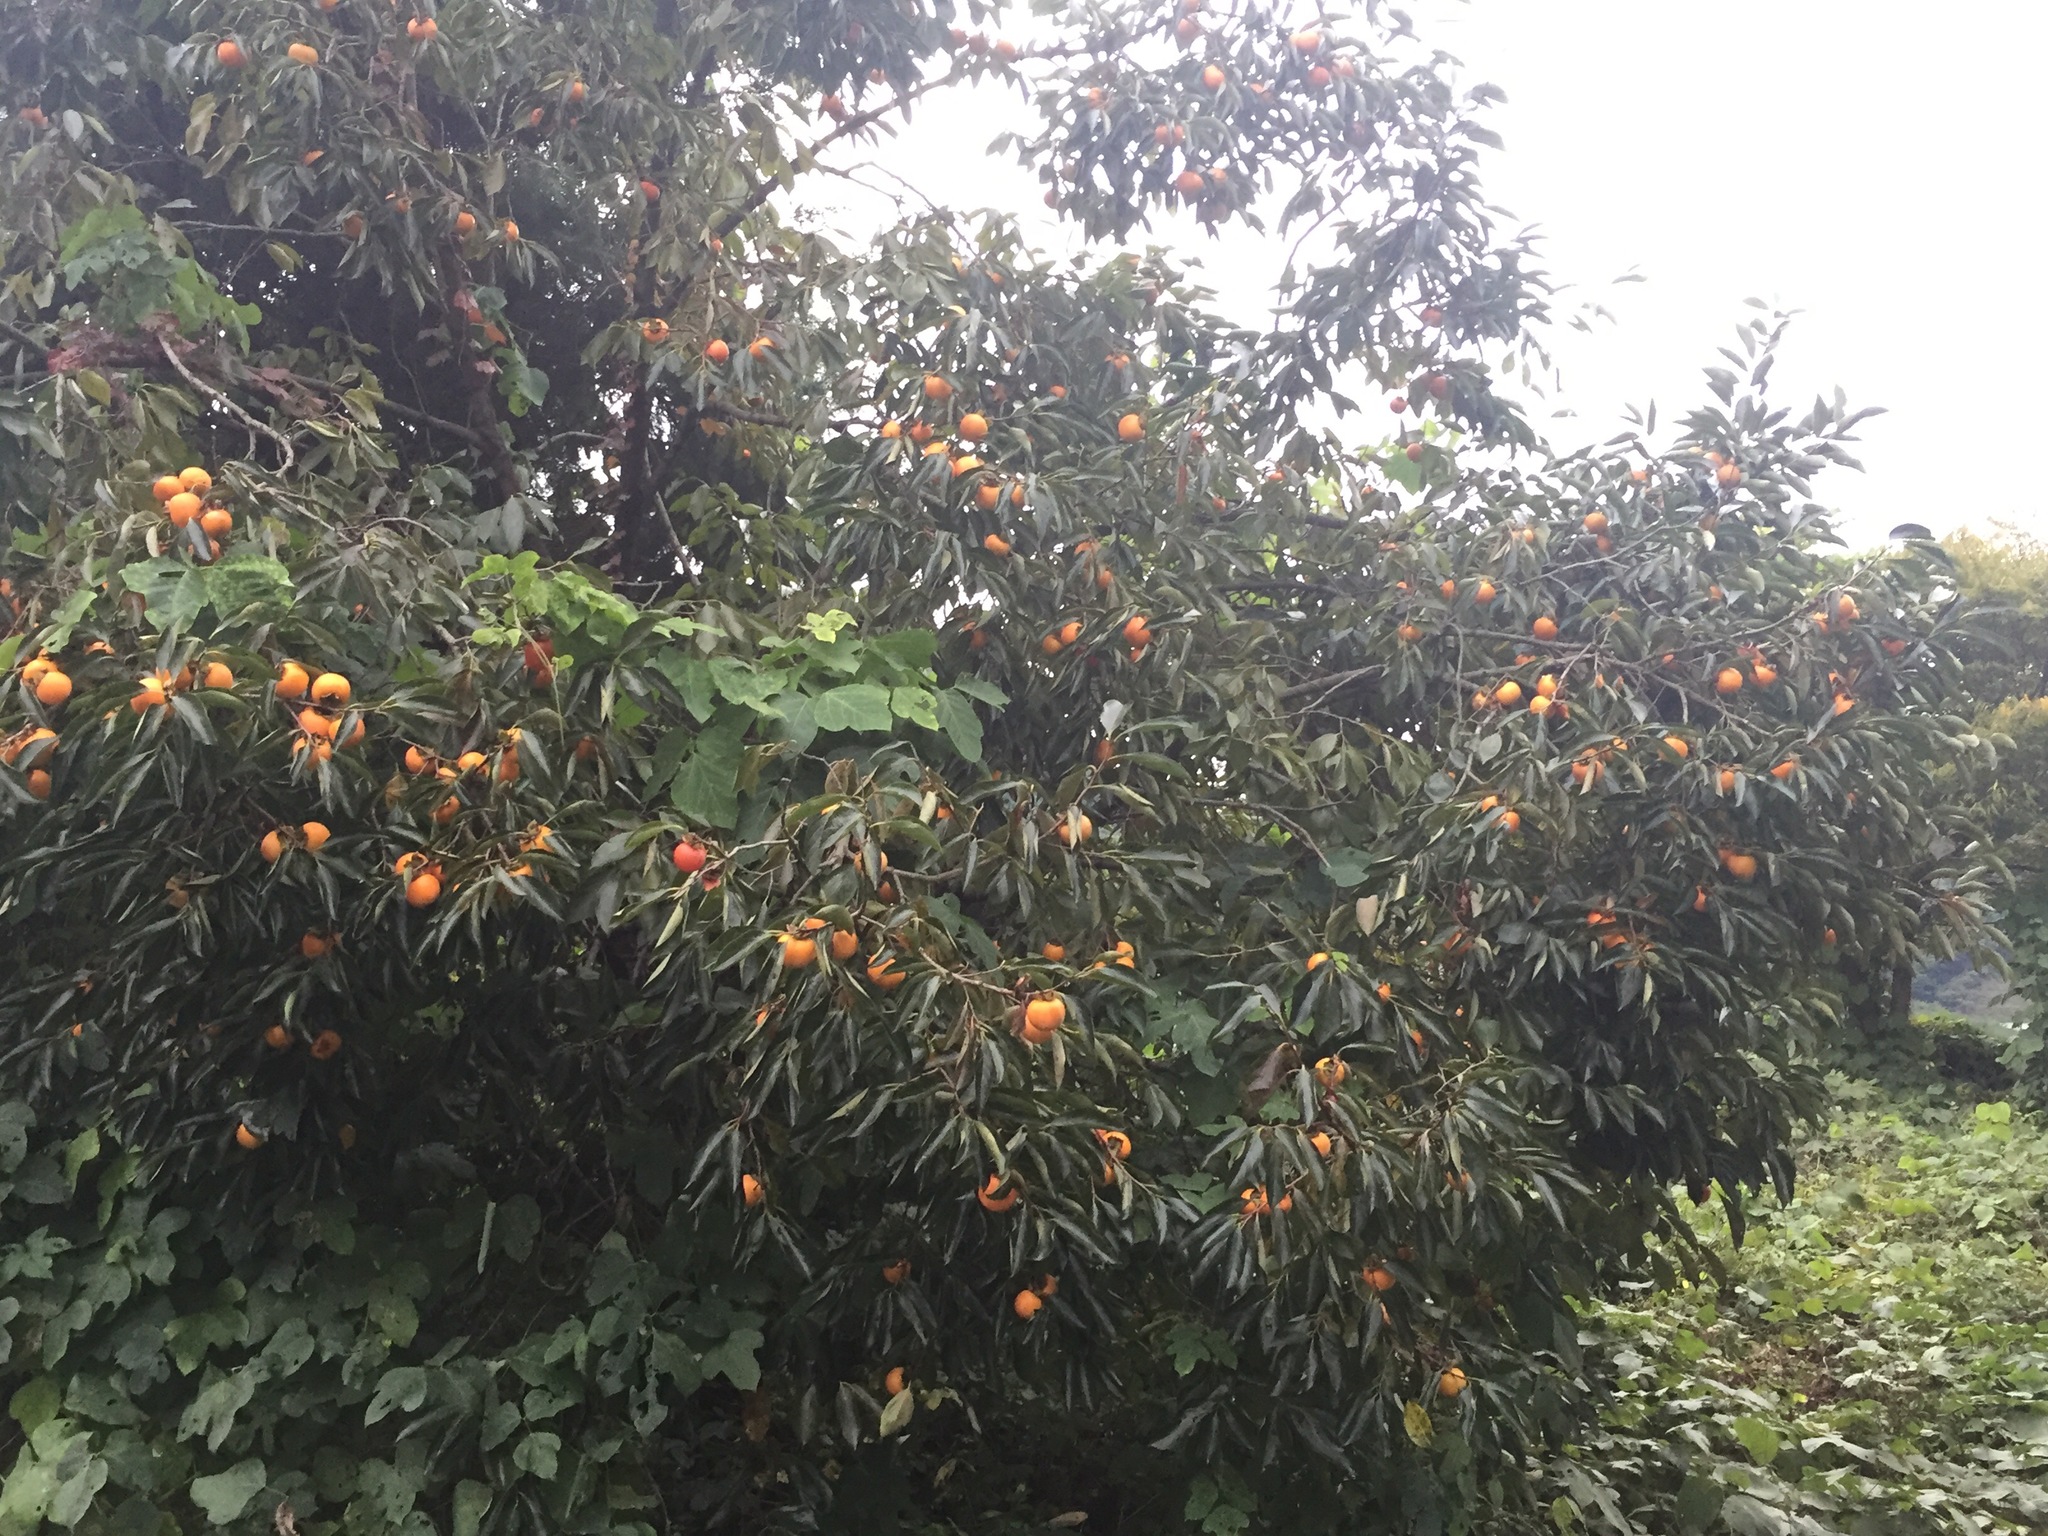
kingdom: Plantae
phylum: Tracheophyta
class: Magnoliopsida
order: Ericales
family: Ebenaceae
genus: Diospyros
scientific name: Diospyros kaki
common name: Persimmon
